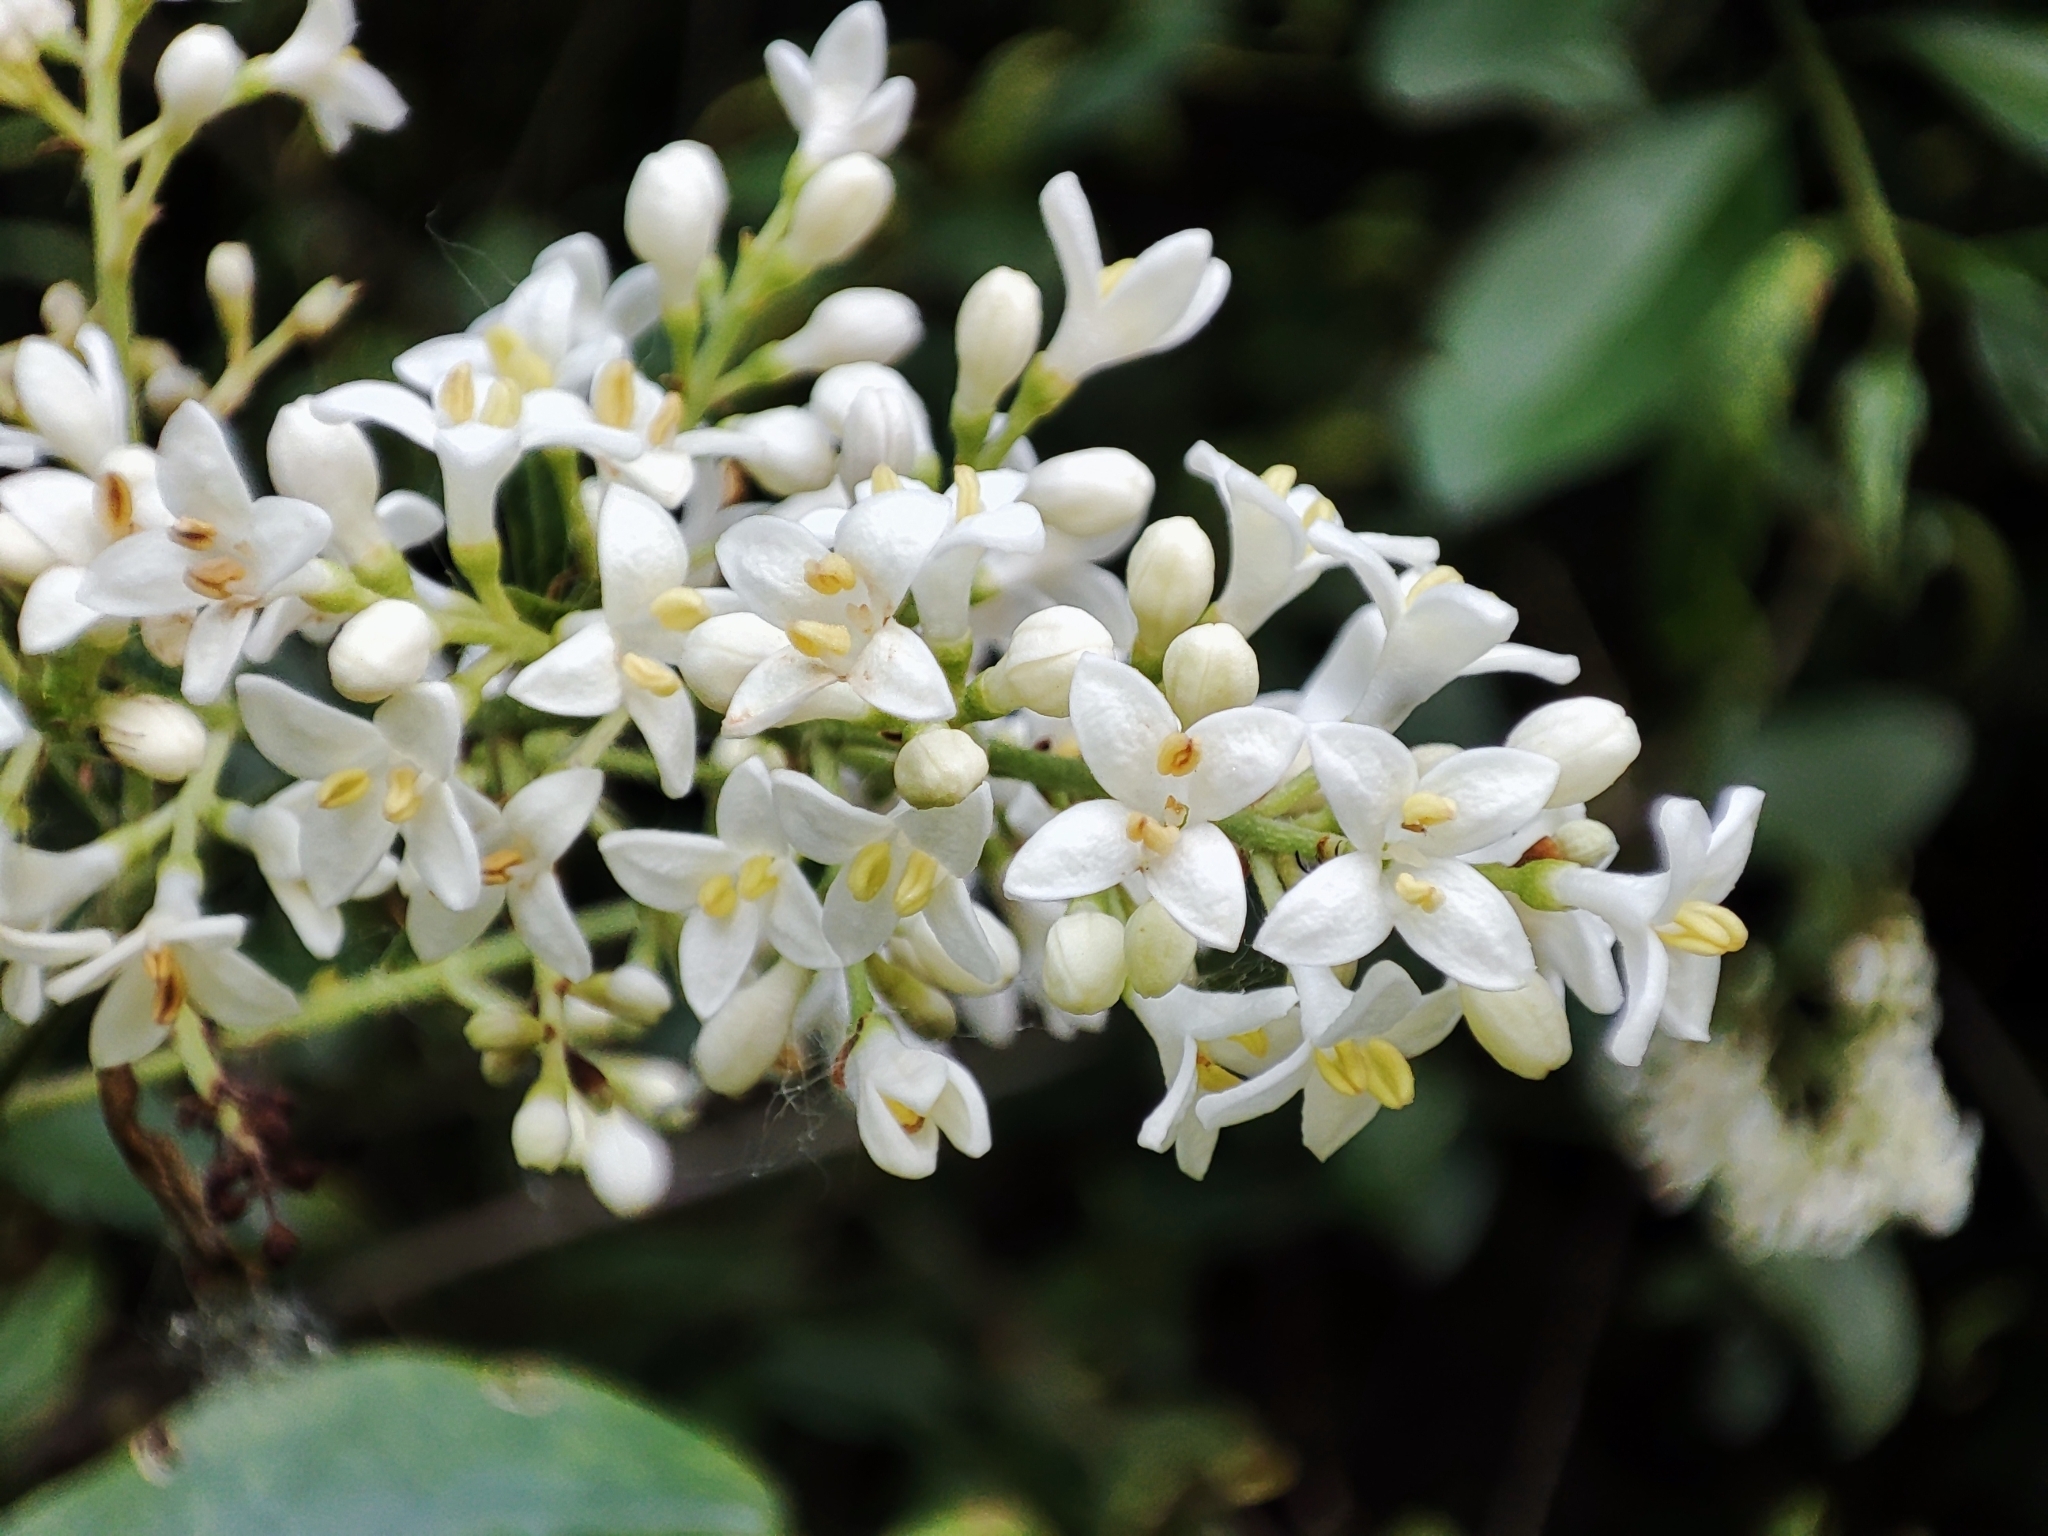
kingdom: Plantae
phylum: Tracheophyta
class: Magnoliopsida
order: Lamiales
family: Oleaceae
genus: Ligustrum
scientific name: Ligustrum vulgare
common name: Wild privet
